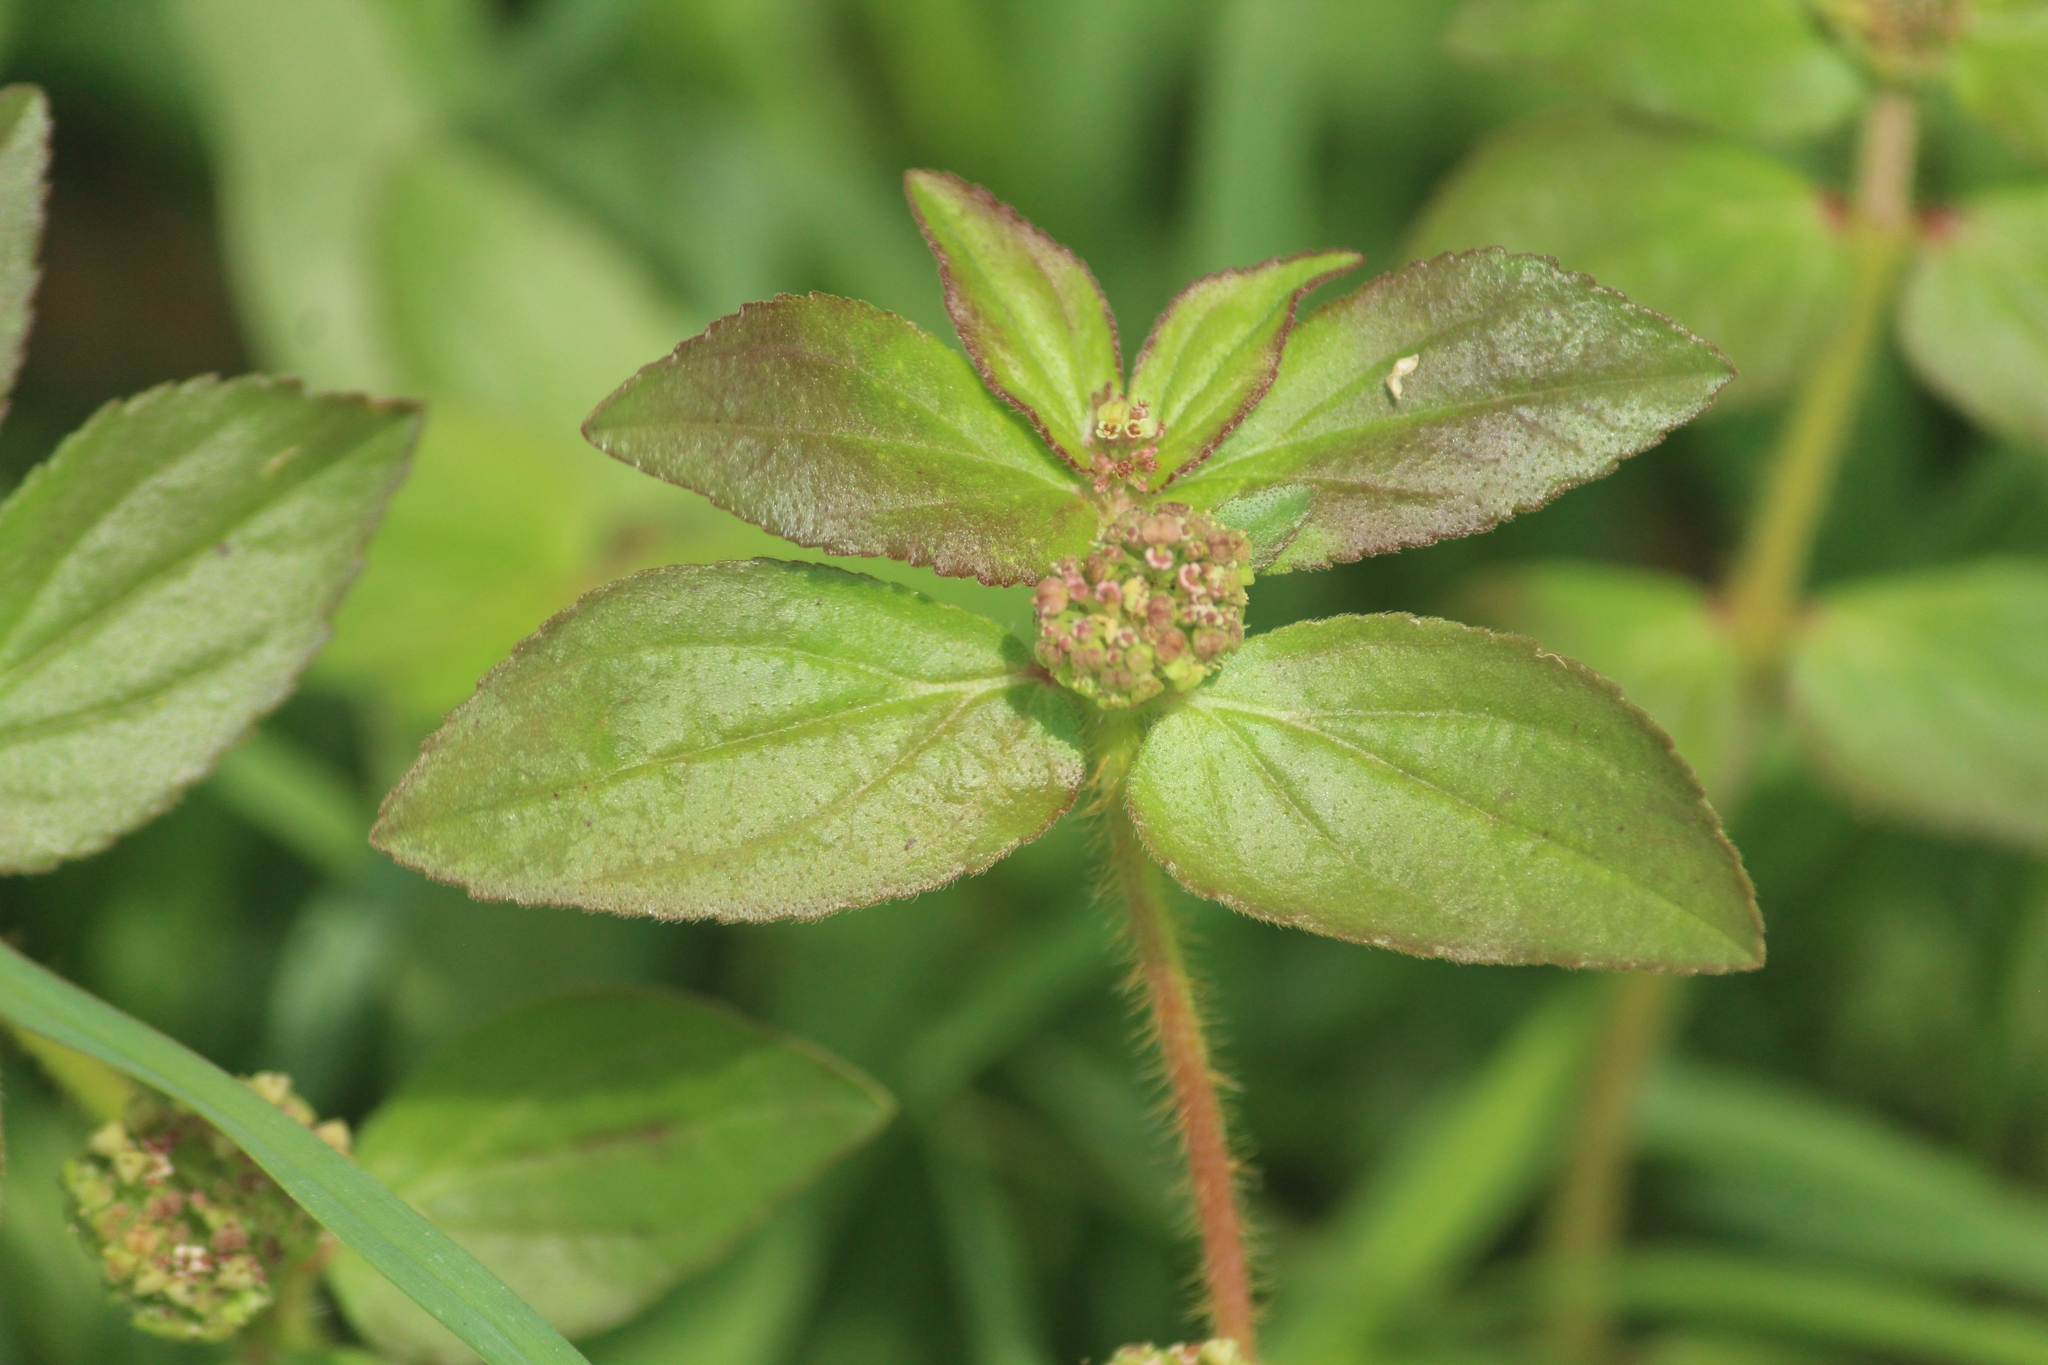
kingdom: Plantae
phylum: Tracheophyta
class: Magnoliopsida
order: Malpighiales
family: Euphorbiaceae
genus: Euphorbia
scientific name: Euphorbia hirta
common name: Pillpod sandmat
